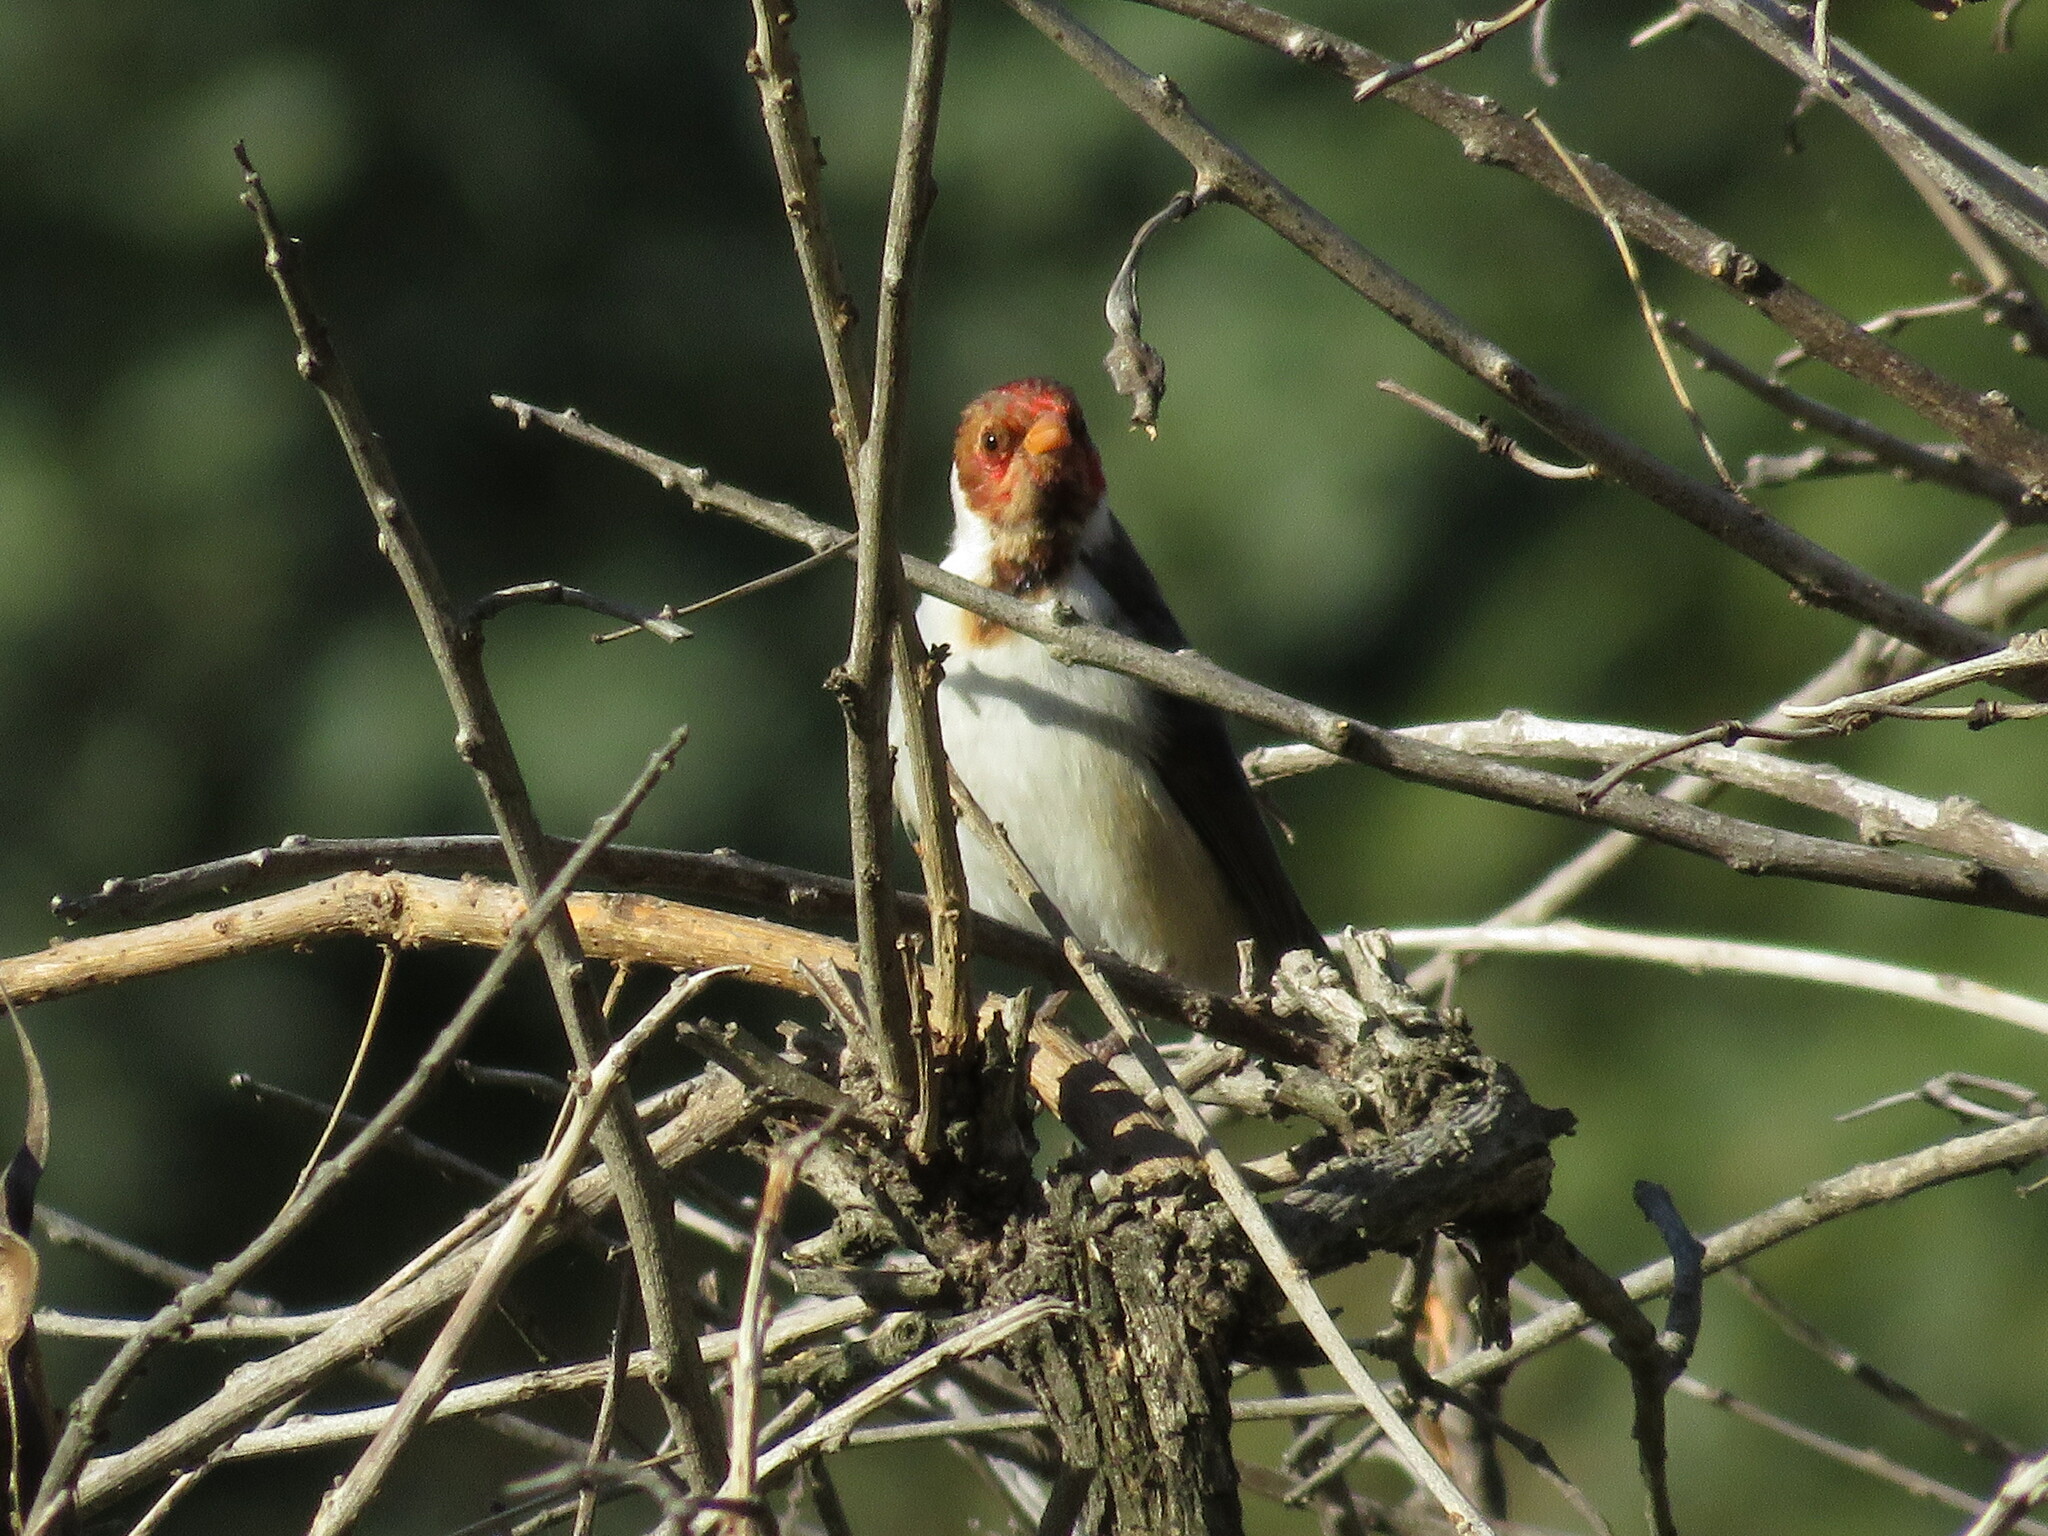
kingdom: Animalia
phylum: Chordata
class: Aves
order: Passeriformes
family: Thraupidae
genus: Paroaria
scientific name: Paroaria capitata
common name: Yellow-billed cardinal
